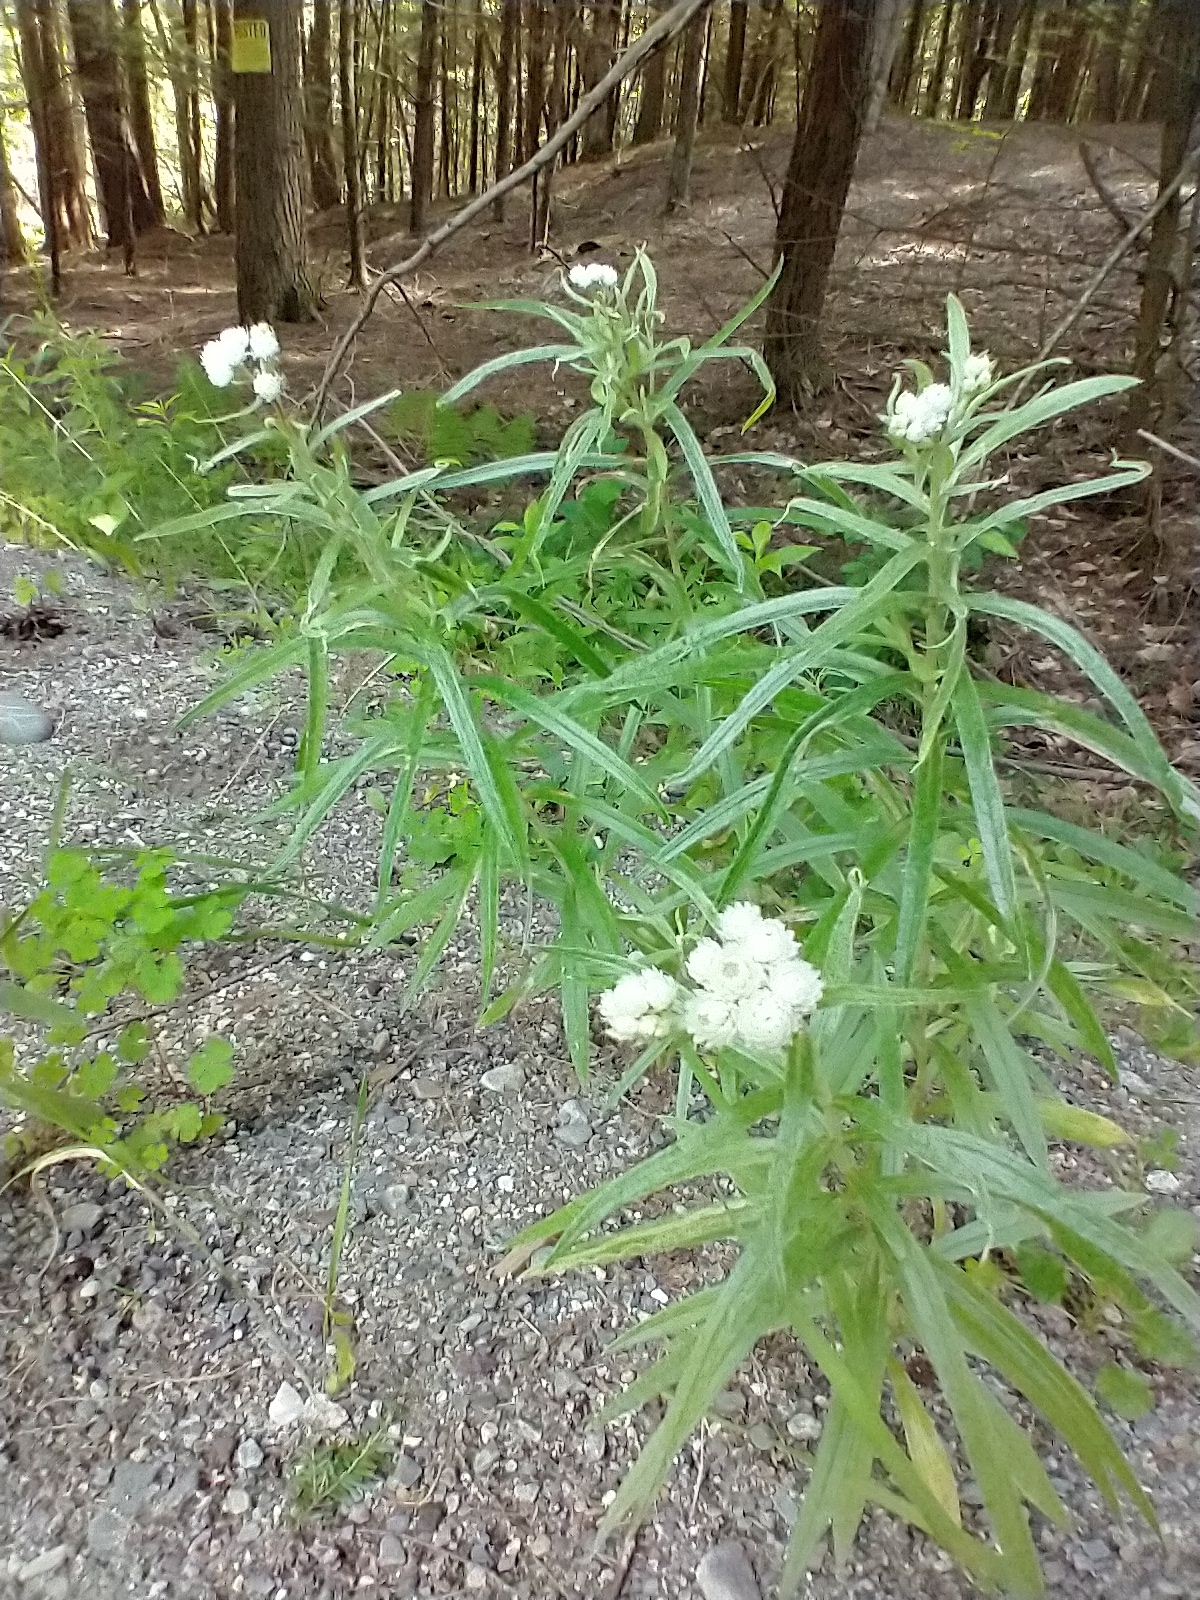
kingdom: Plantae
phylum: Tracheophyta
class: Magnoliopsida
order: Asterales
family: Asteraceae
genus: Anaphalis
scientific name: Anaphalis margaritacea
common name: Pearly everlasting
